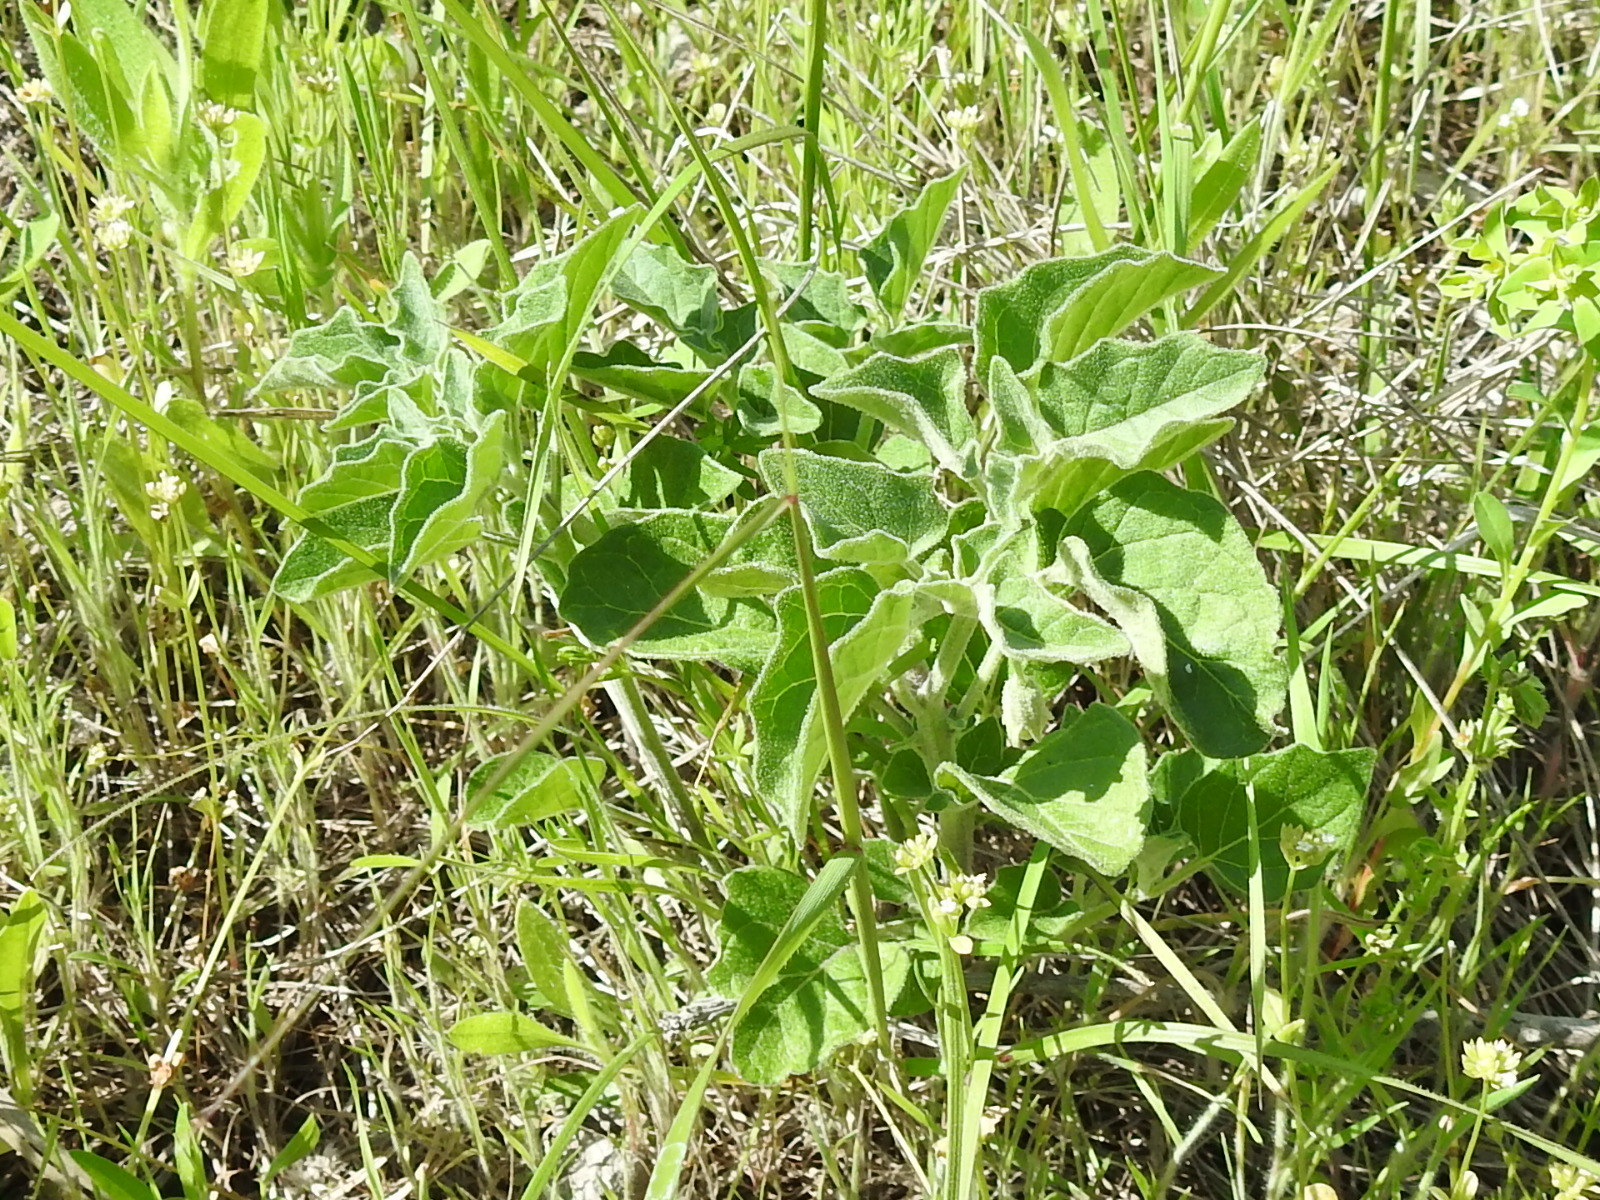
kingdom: Plantae
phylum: Tracheophyta
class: Magnoliopsida
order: Solanales
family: Solanaceae
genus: Physalis
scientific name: Physalis cinerascens
